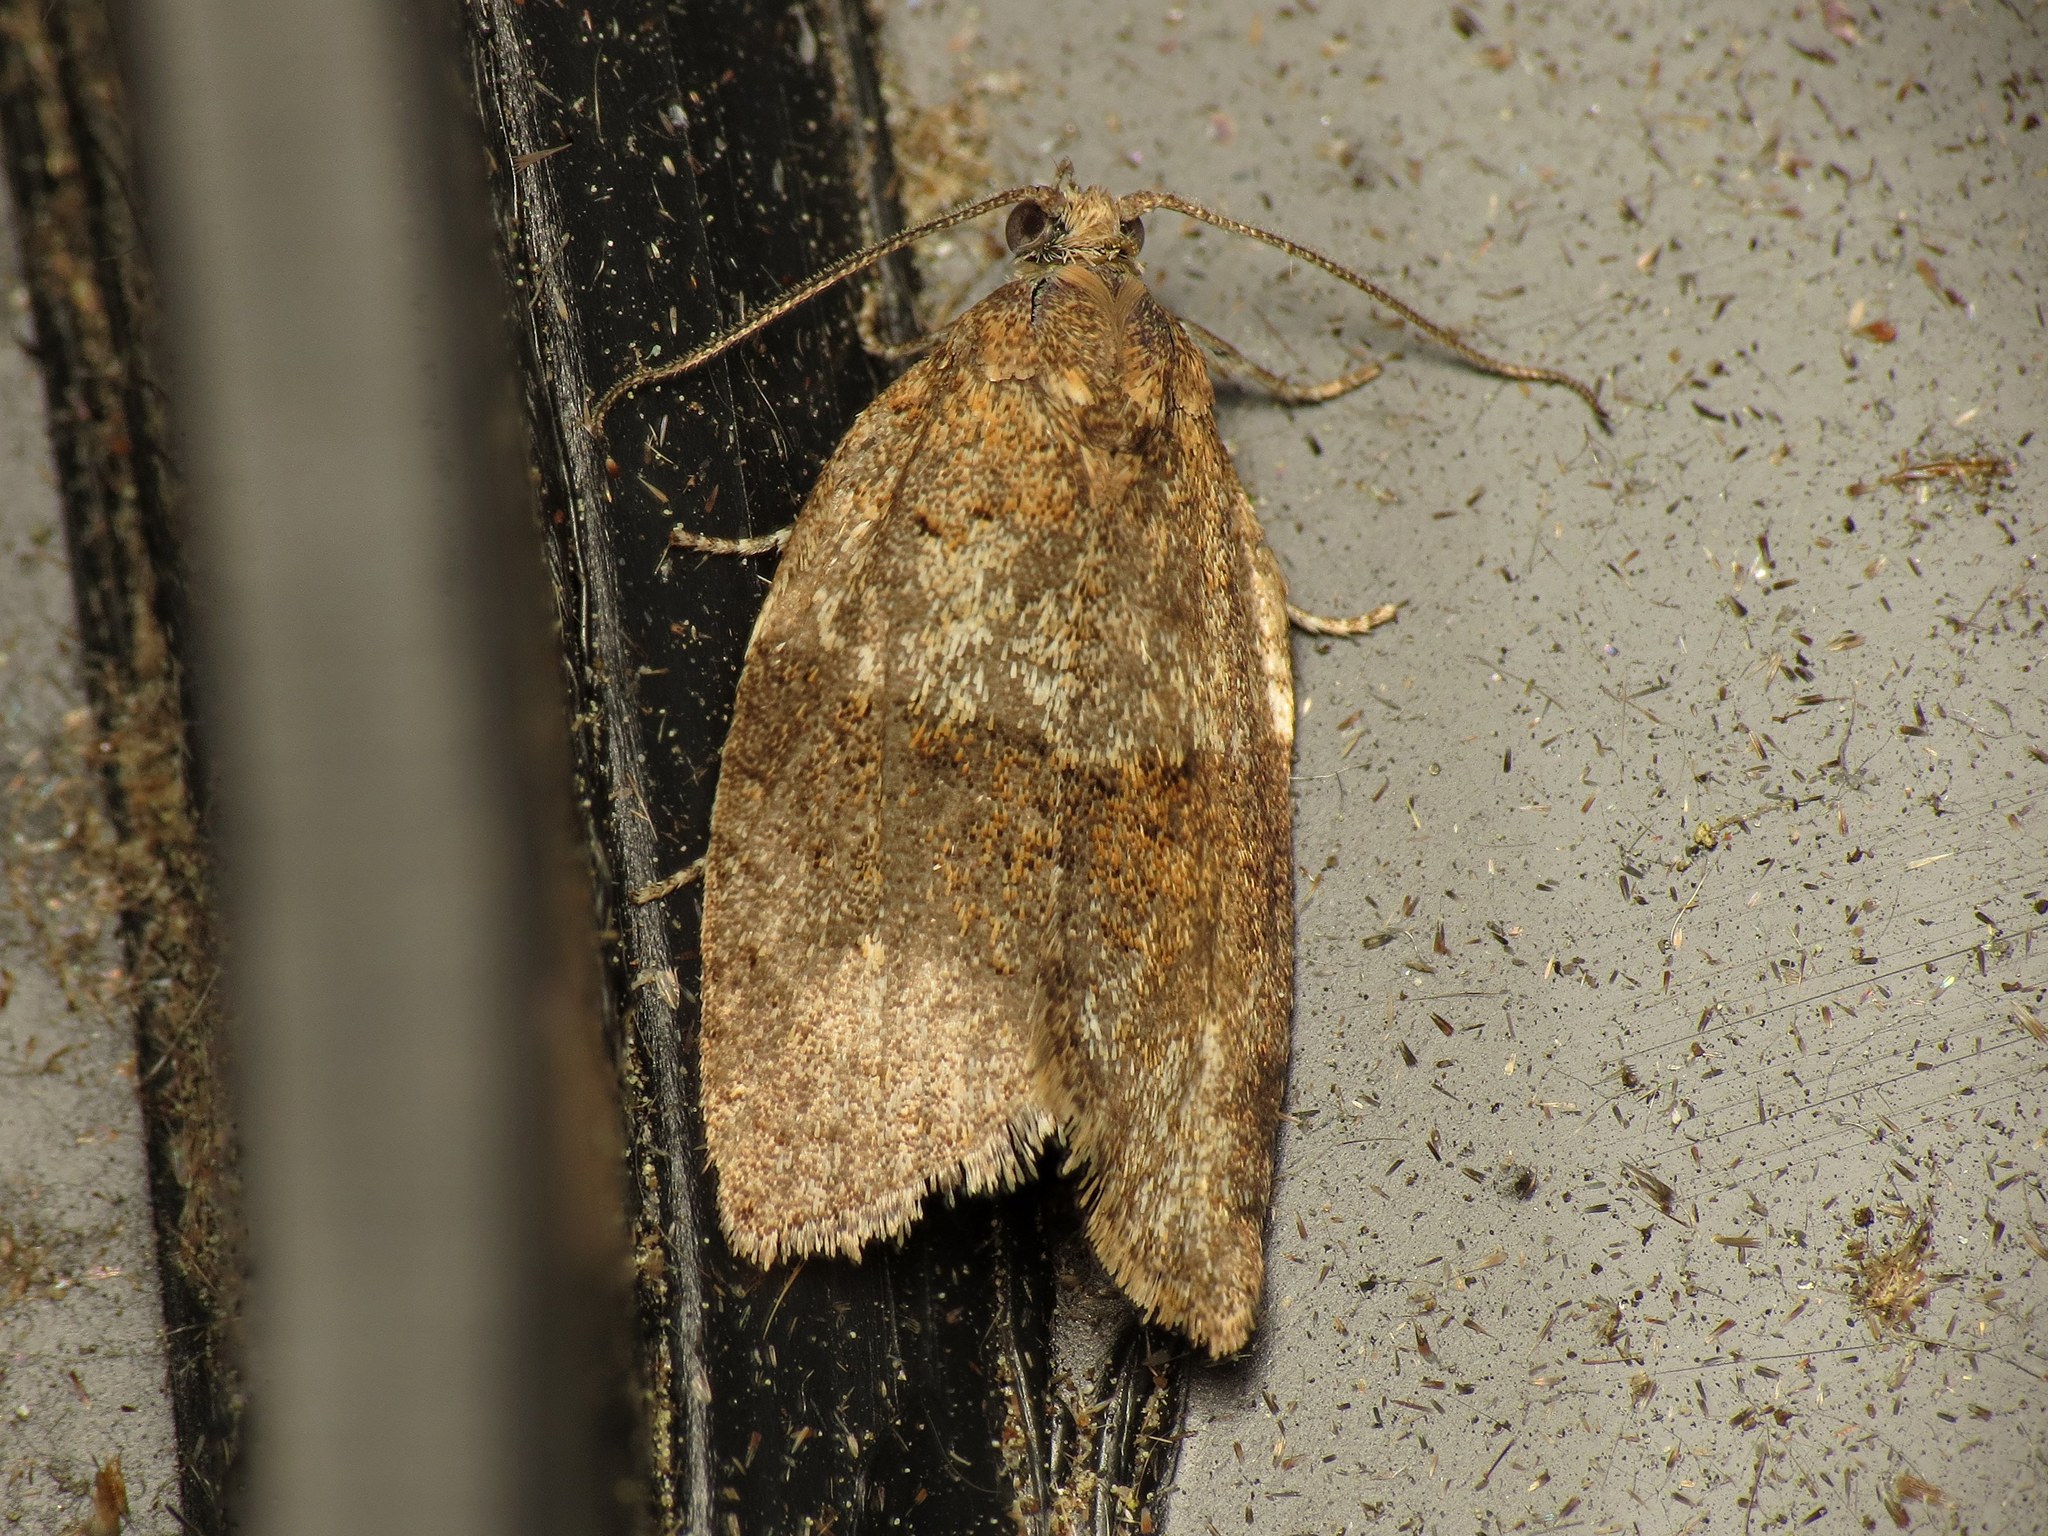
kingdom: Animalia
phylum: Arthropoda
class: Insecta
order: Lepidoptera
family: Tortricidae
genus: Syndemis
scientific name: Syndemis musculana
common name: Dark-barred twist
